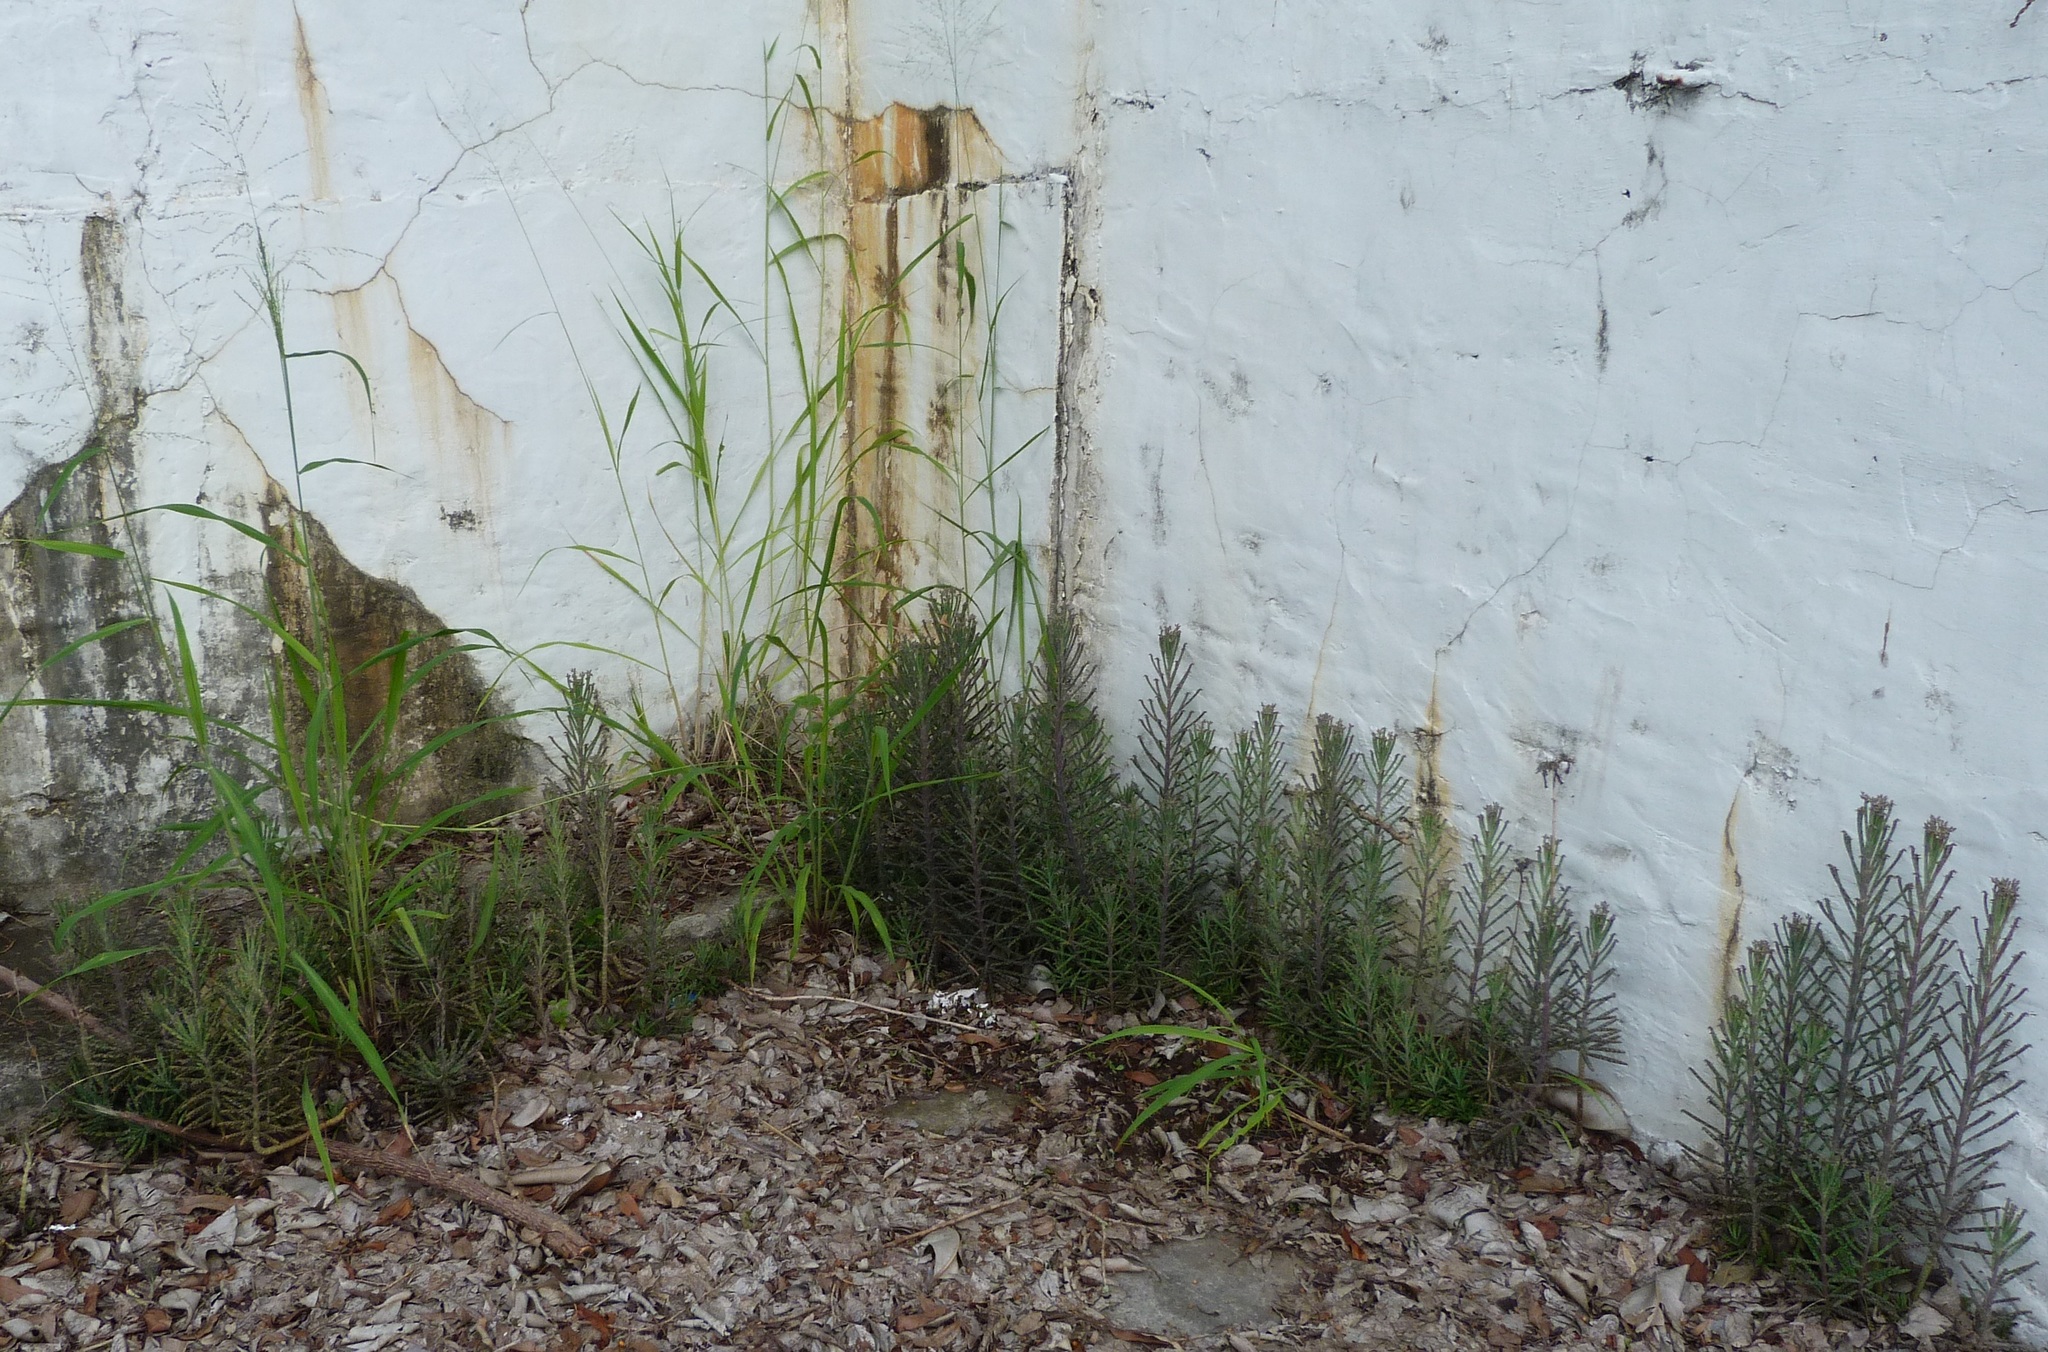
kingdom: Plantae
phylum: Tracheophyta
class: Magnoliopsida
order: Saxifragales
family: Crassulaceae
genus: Kalanchoe
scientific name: Kalanchoe delagoensis
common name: Chandelier plant
